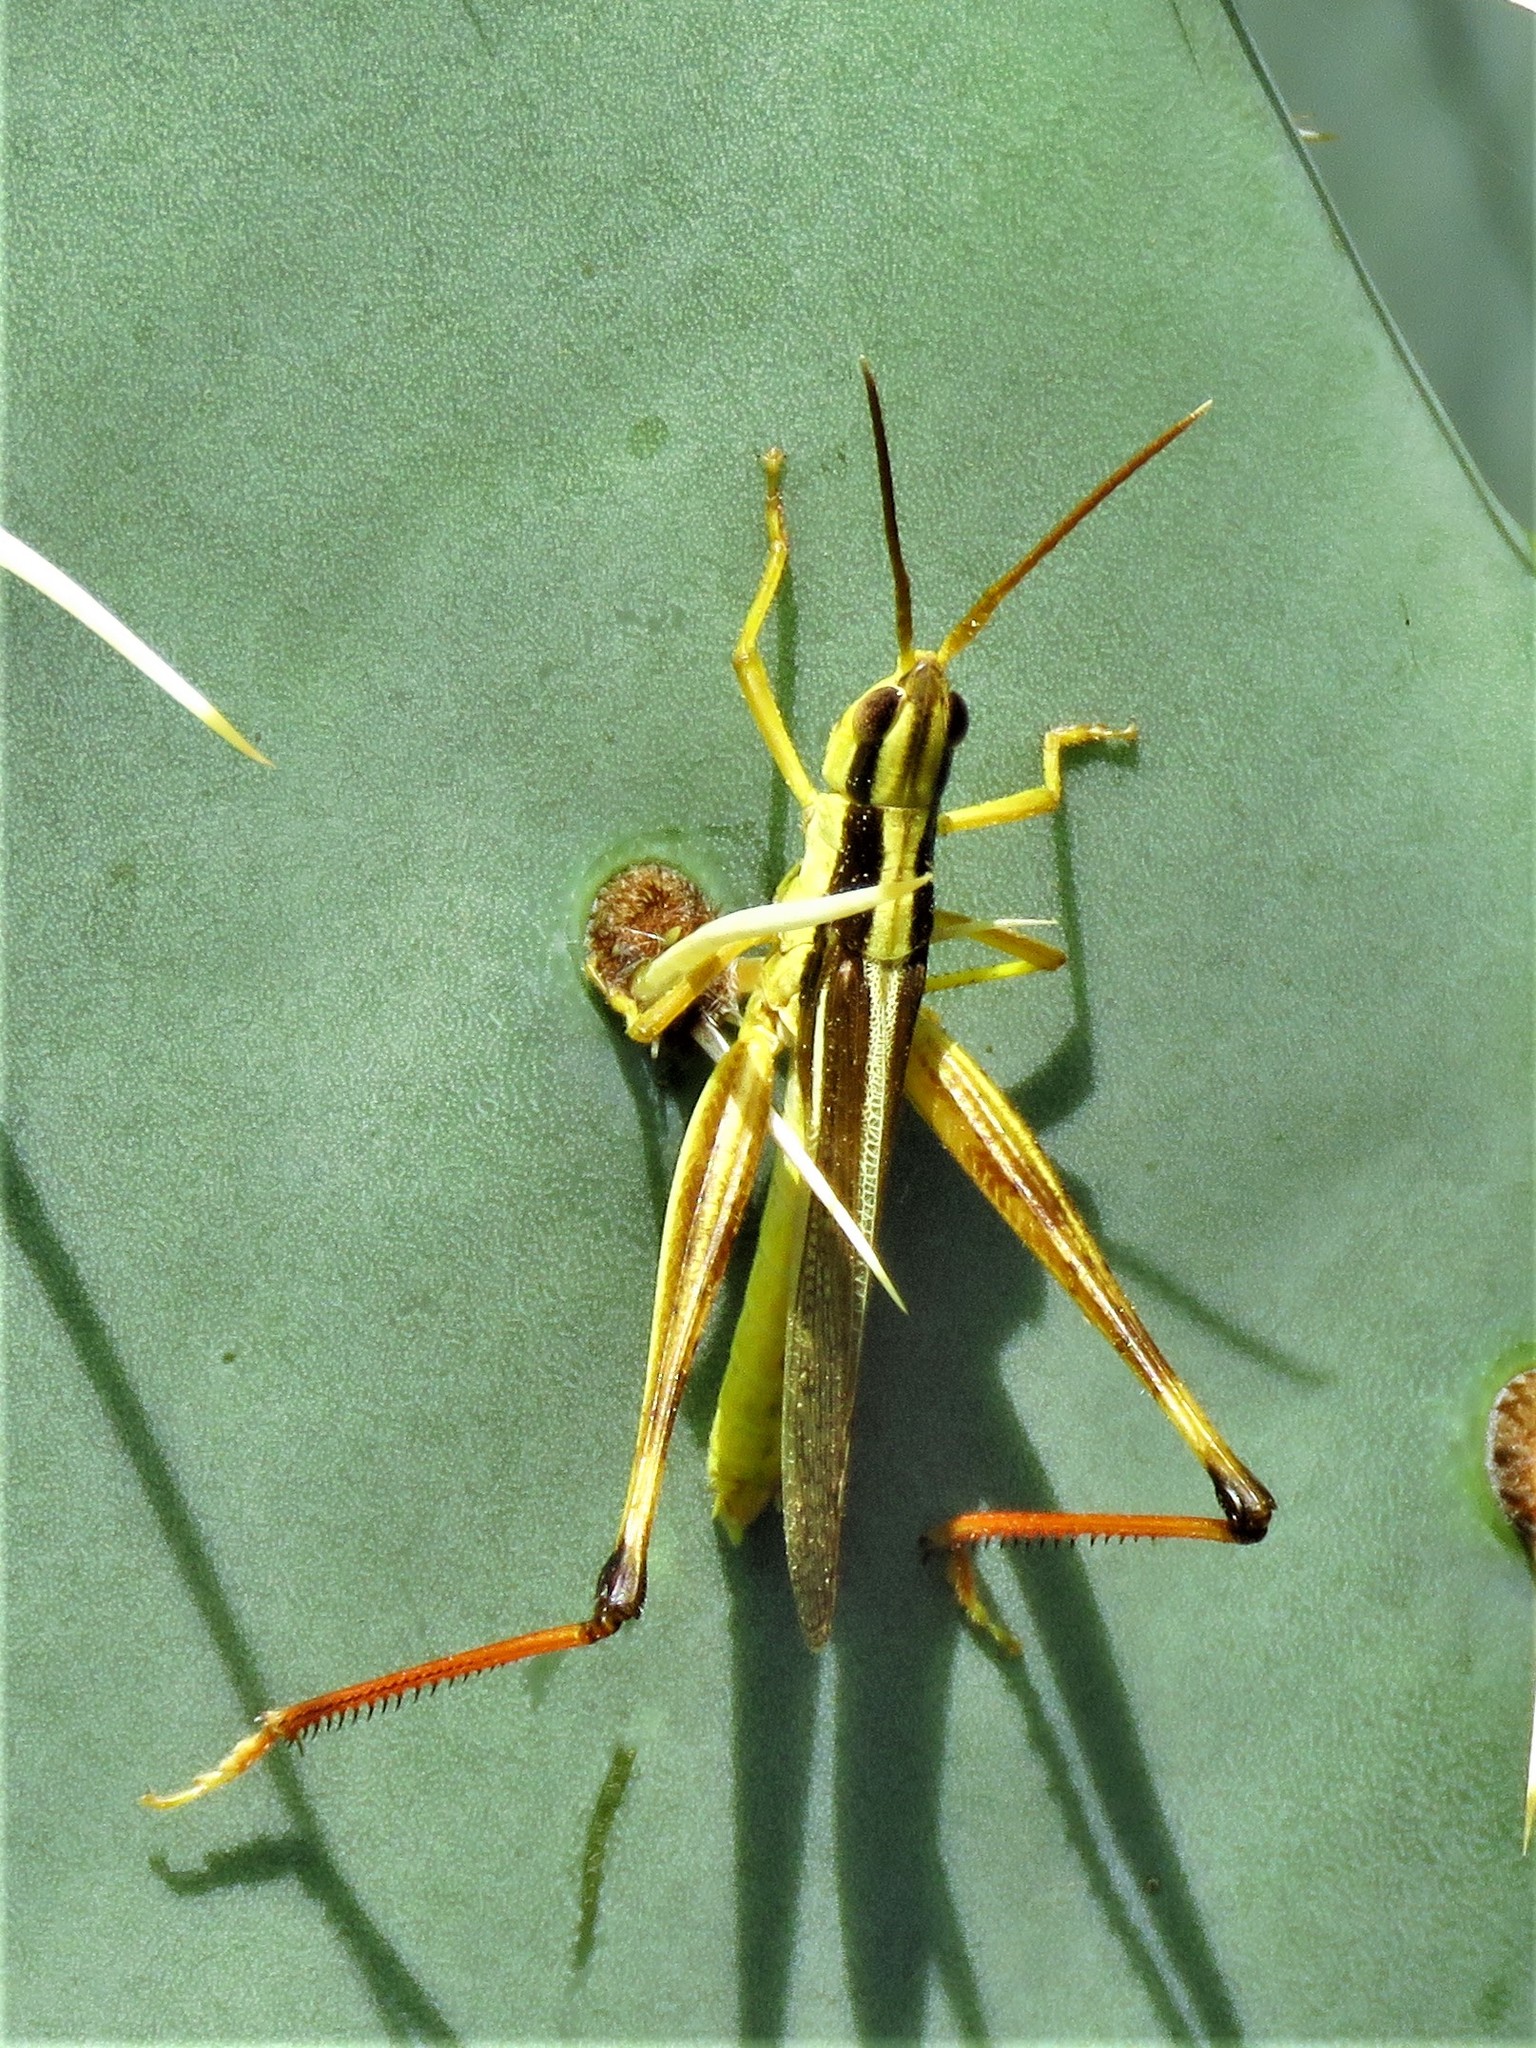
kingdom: Animalia
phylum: Arthropoda
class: Insecta
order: Orthoptera
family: Acrididae
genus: Mermiria
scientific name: Mermiria bivittata
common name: Two-striped mermiria grasshopper
